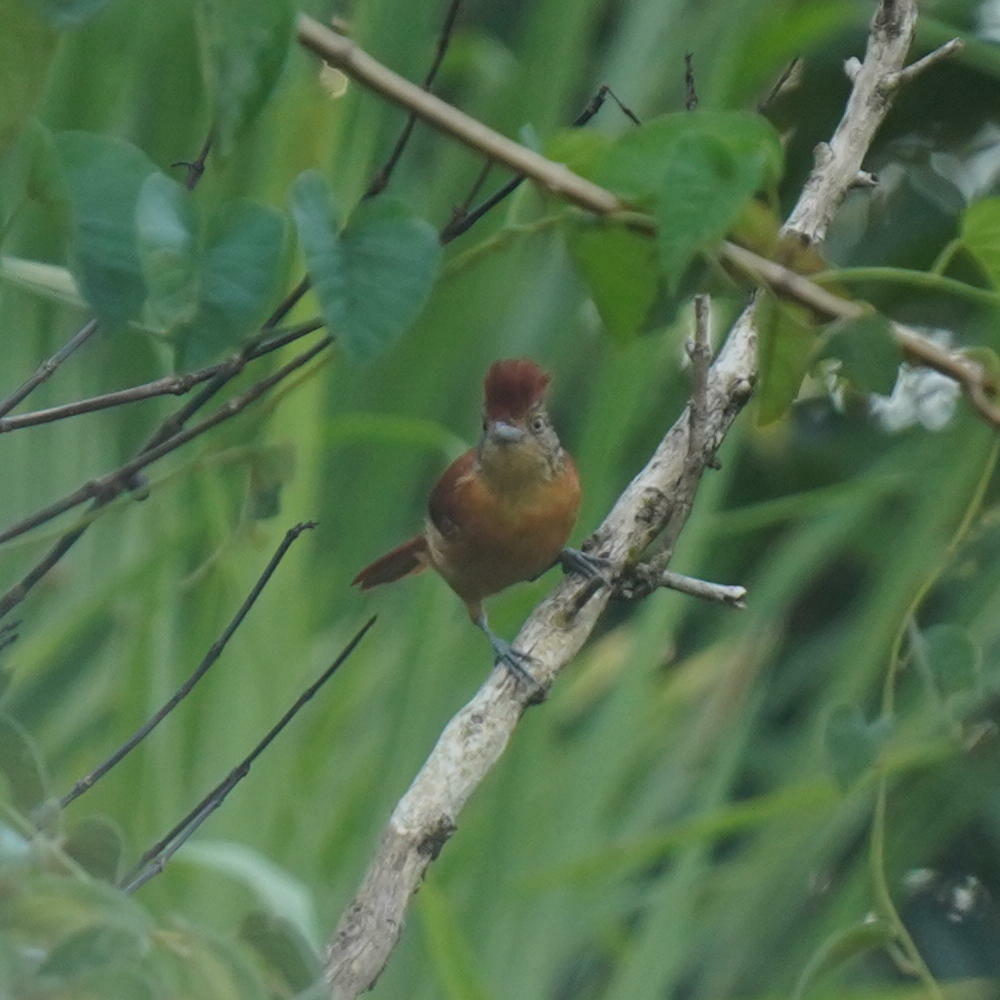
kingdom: Animalia
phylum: Chordata
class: Aves
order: Passeriformes
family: Thamnophilidae
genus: Thamnophilus
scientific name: Thamnophilus doliatus
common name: Barred antshrike
